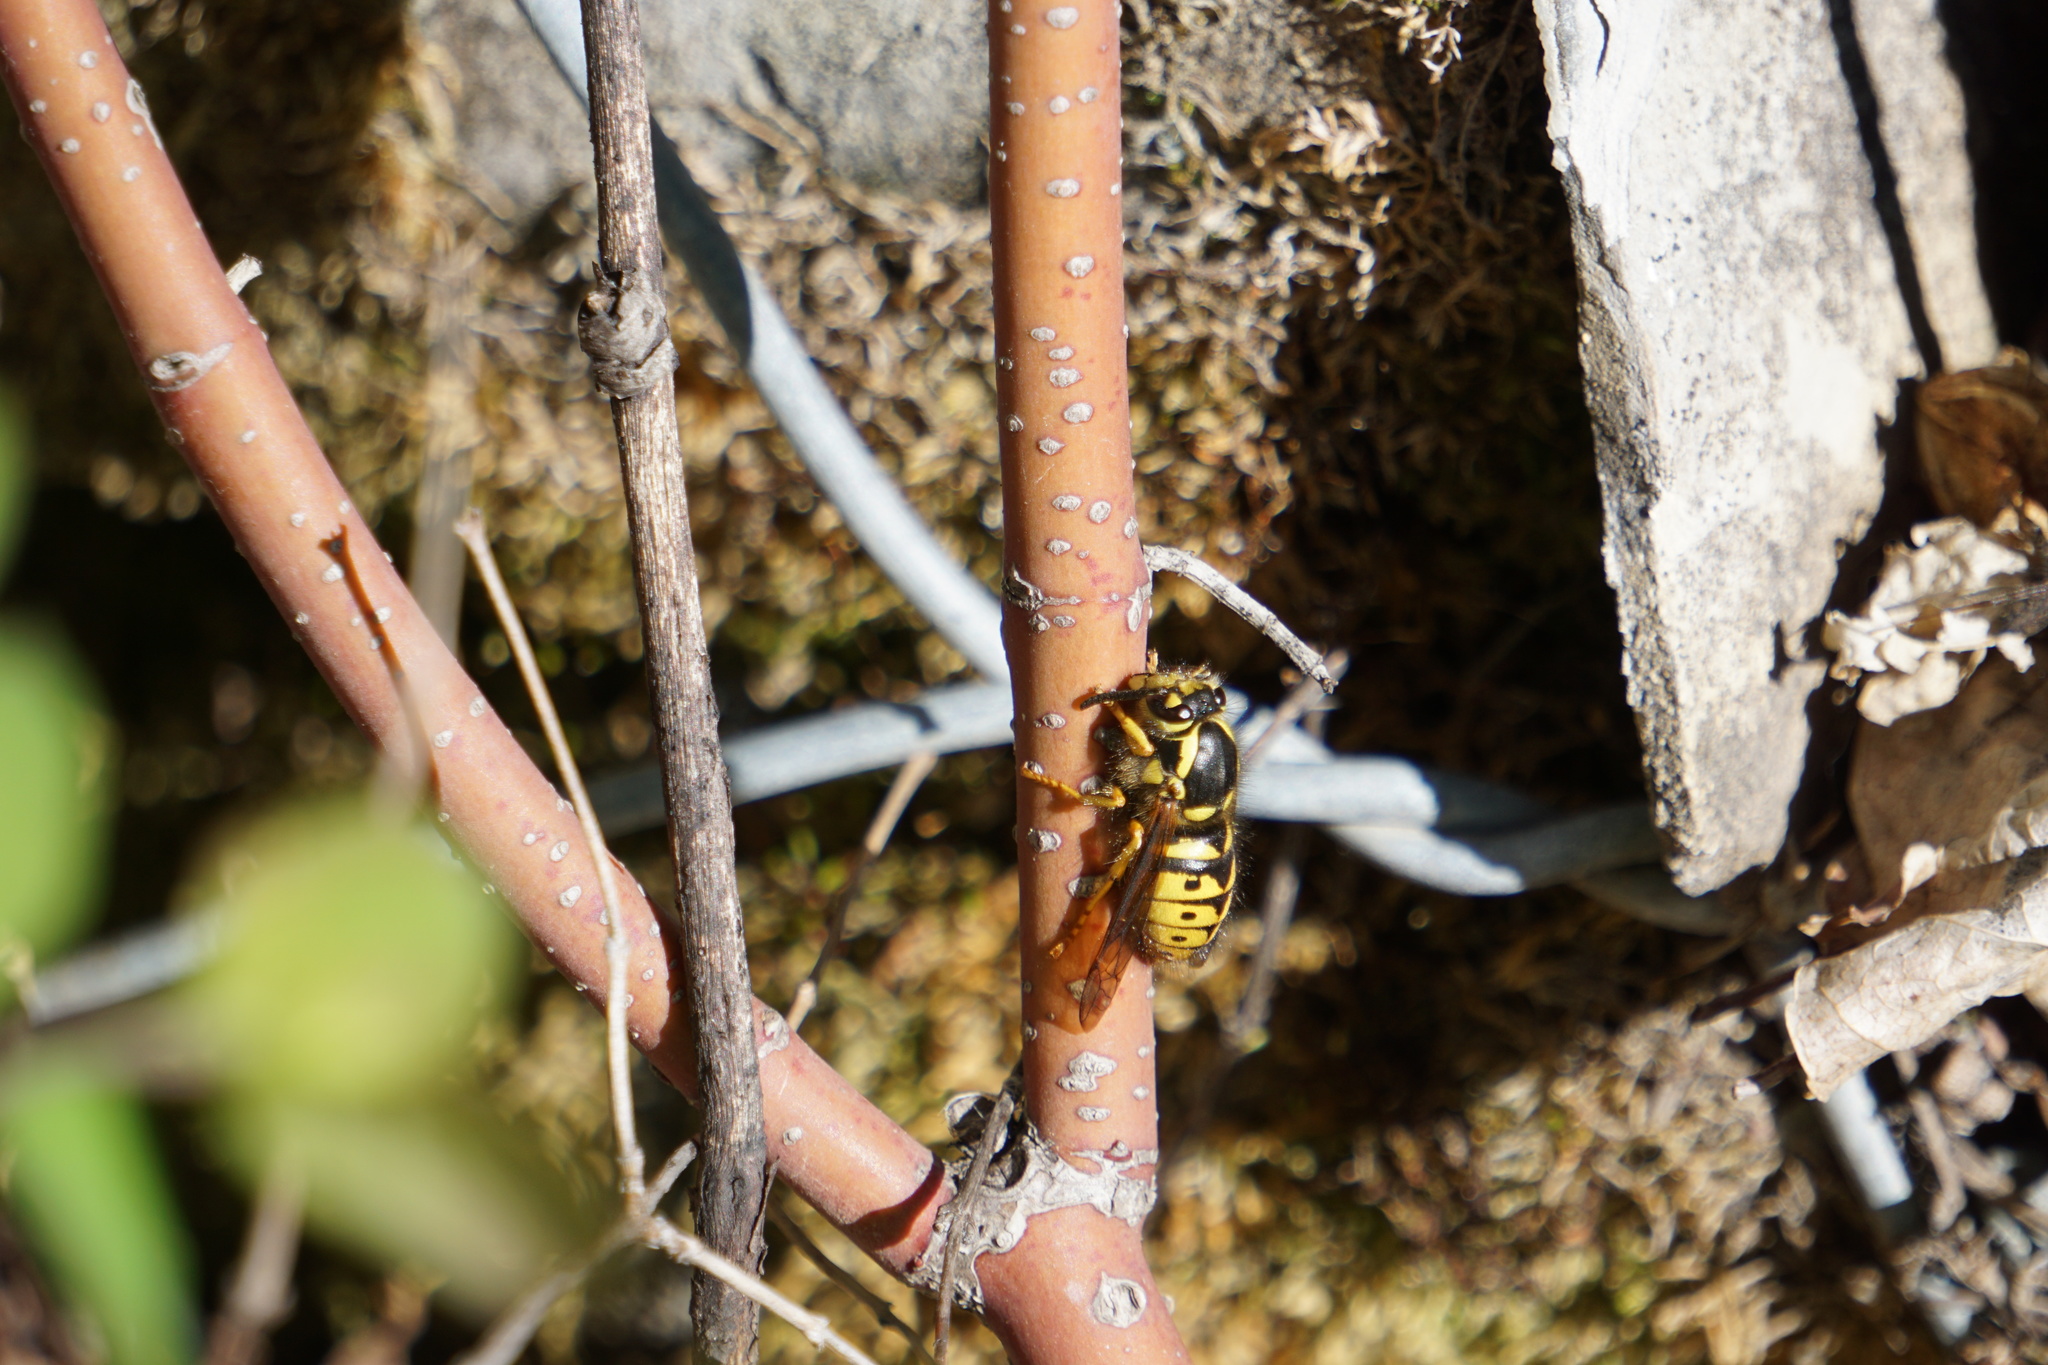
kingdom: Animalia
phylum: Arthropoda
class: Insecta
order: Hymenoptera
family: Vespidae
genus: Dolichovespula
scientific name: Dolichovespula arenaria
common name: Aerial yellowjacket
